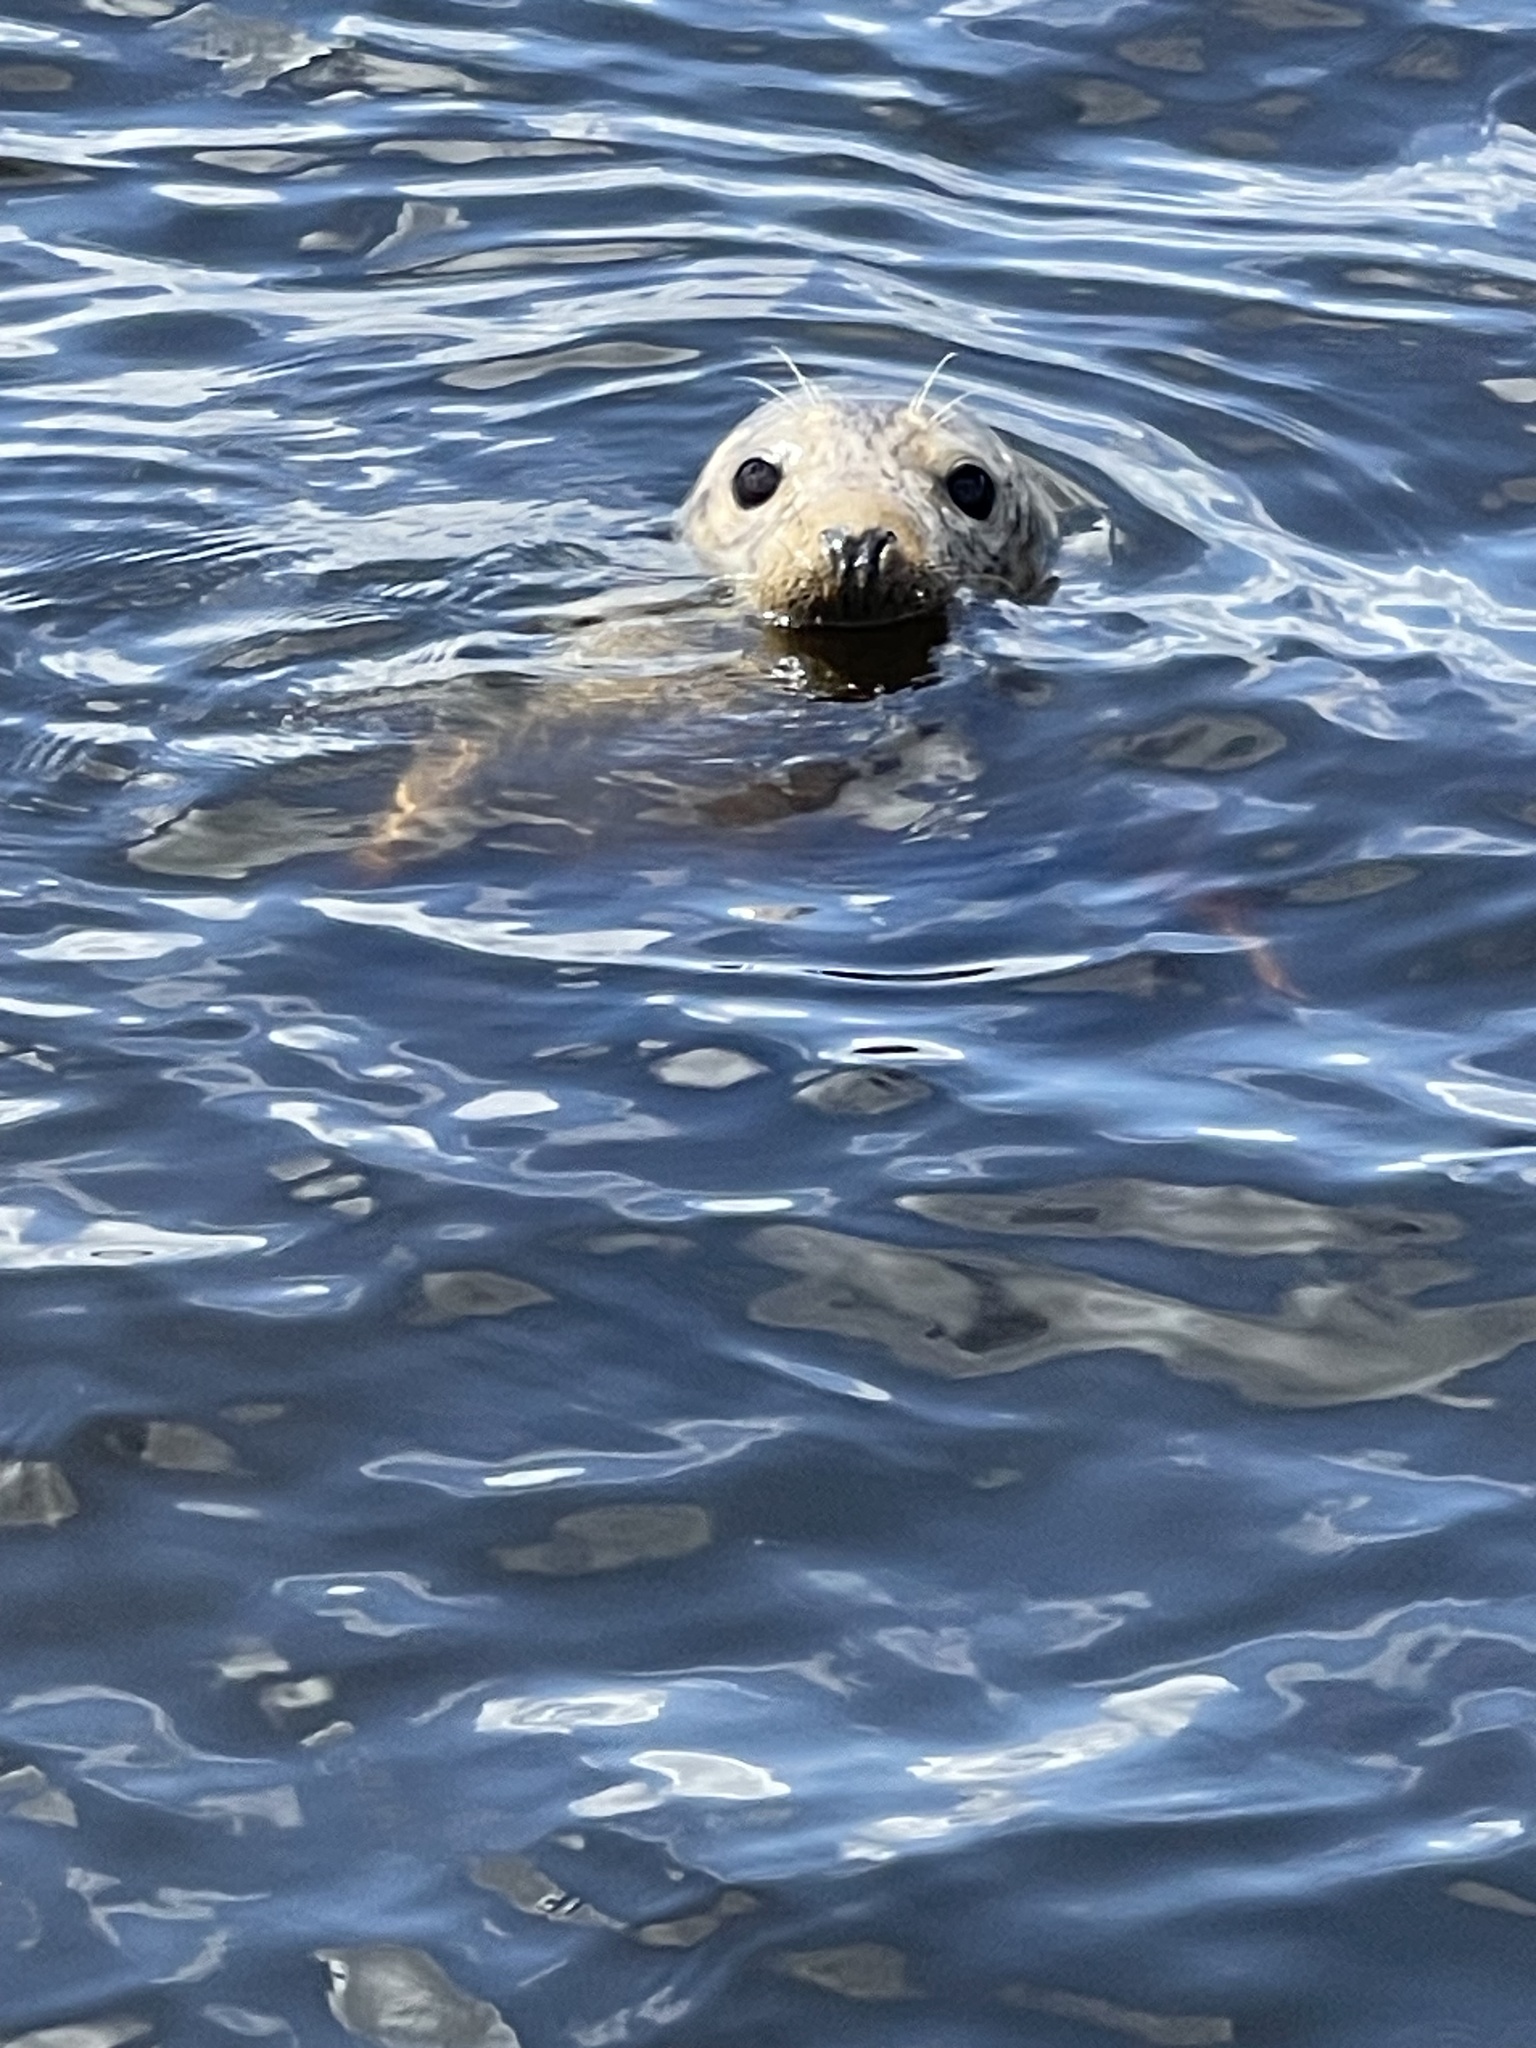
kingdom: Animalia
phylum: Chordata
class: Mammalia
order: Carnivora
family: Phocidae
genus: Halichoerus
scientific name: Halichoerus grypus
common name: Grey seal
